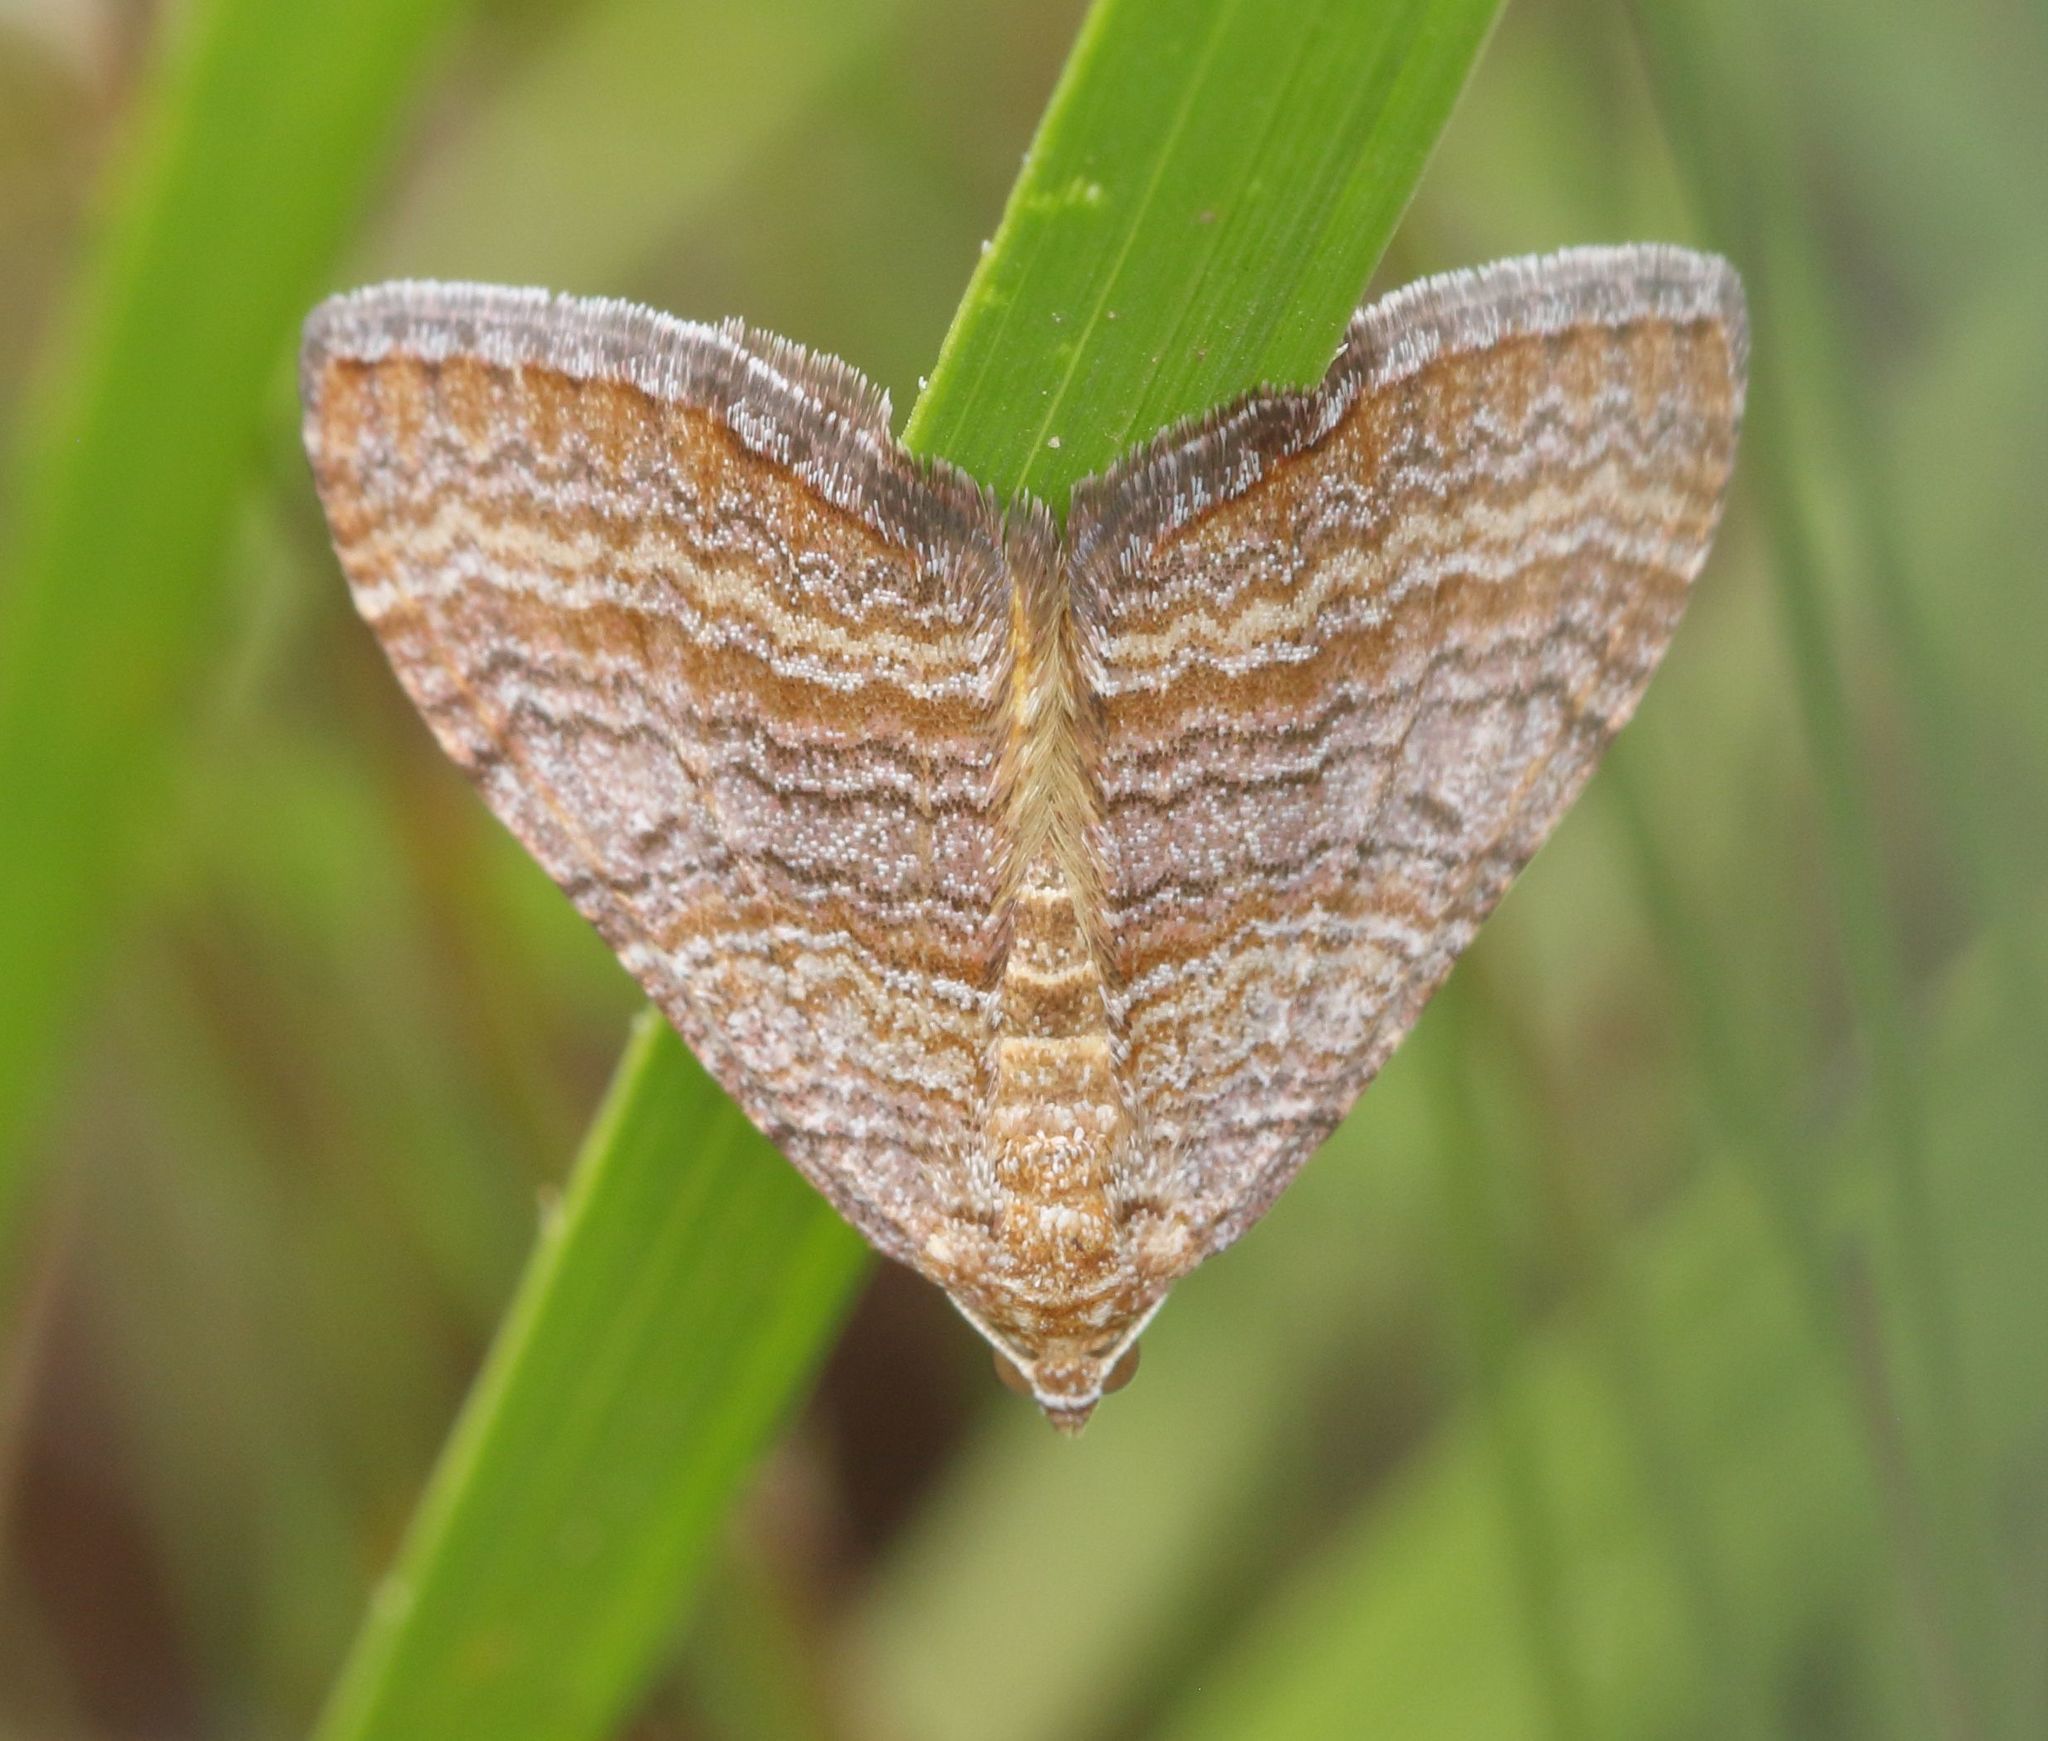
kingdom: Animalia
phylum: Arthropoda
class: Insecta
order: Lepidoptera
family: Geometridae
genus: Mimoclystia
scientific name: Mimoclystia pudicata
